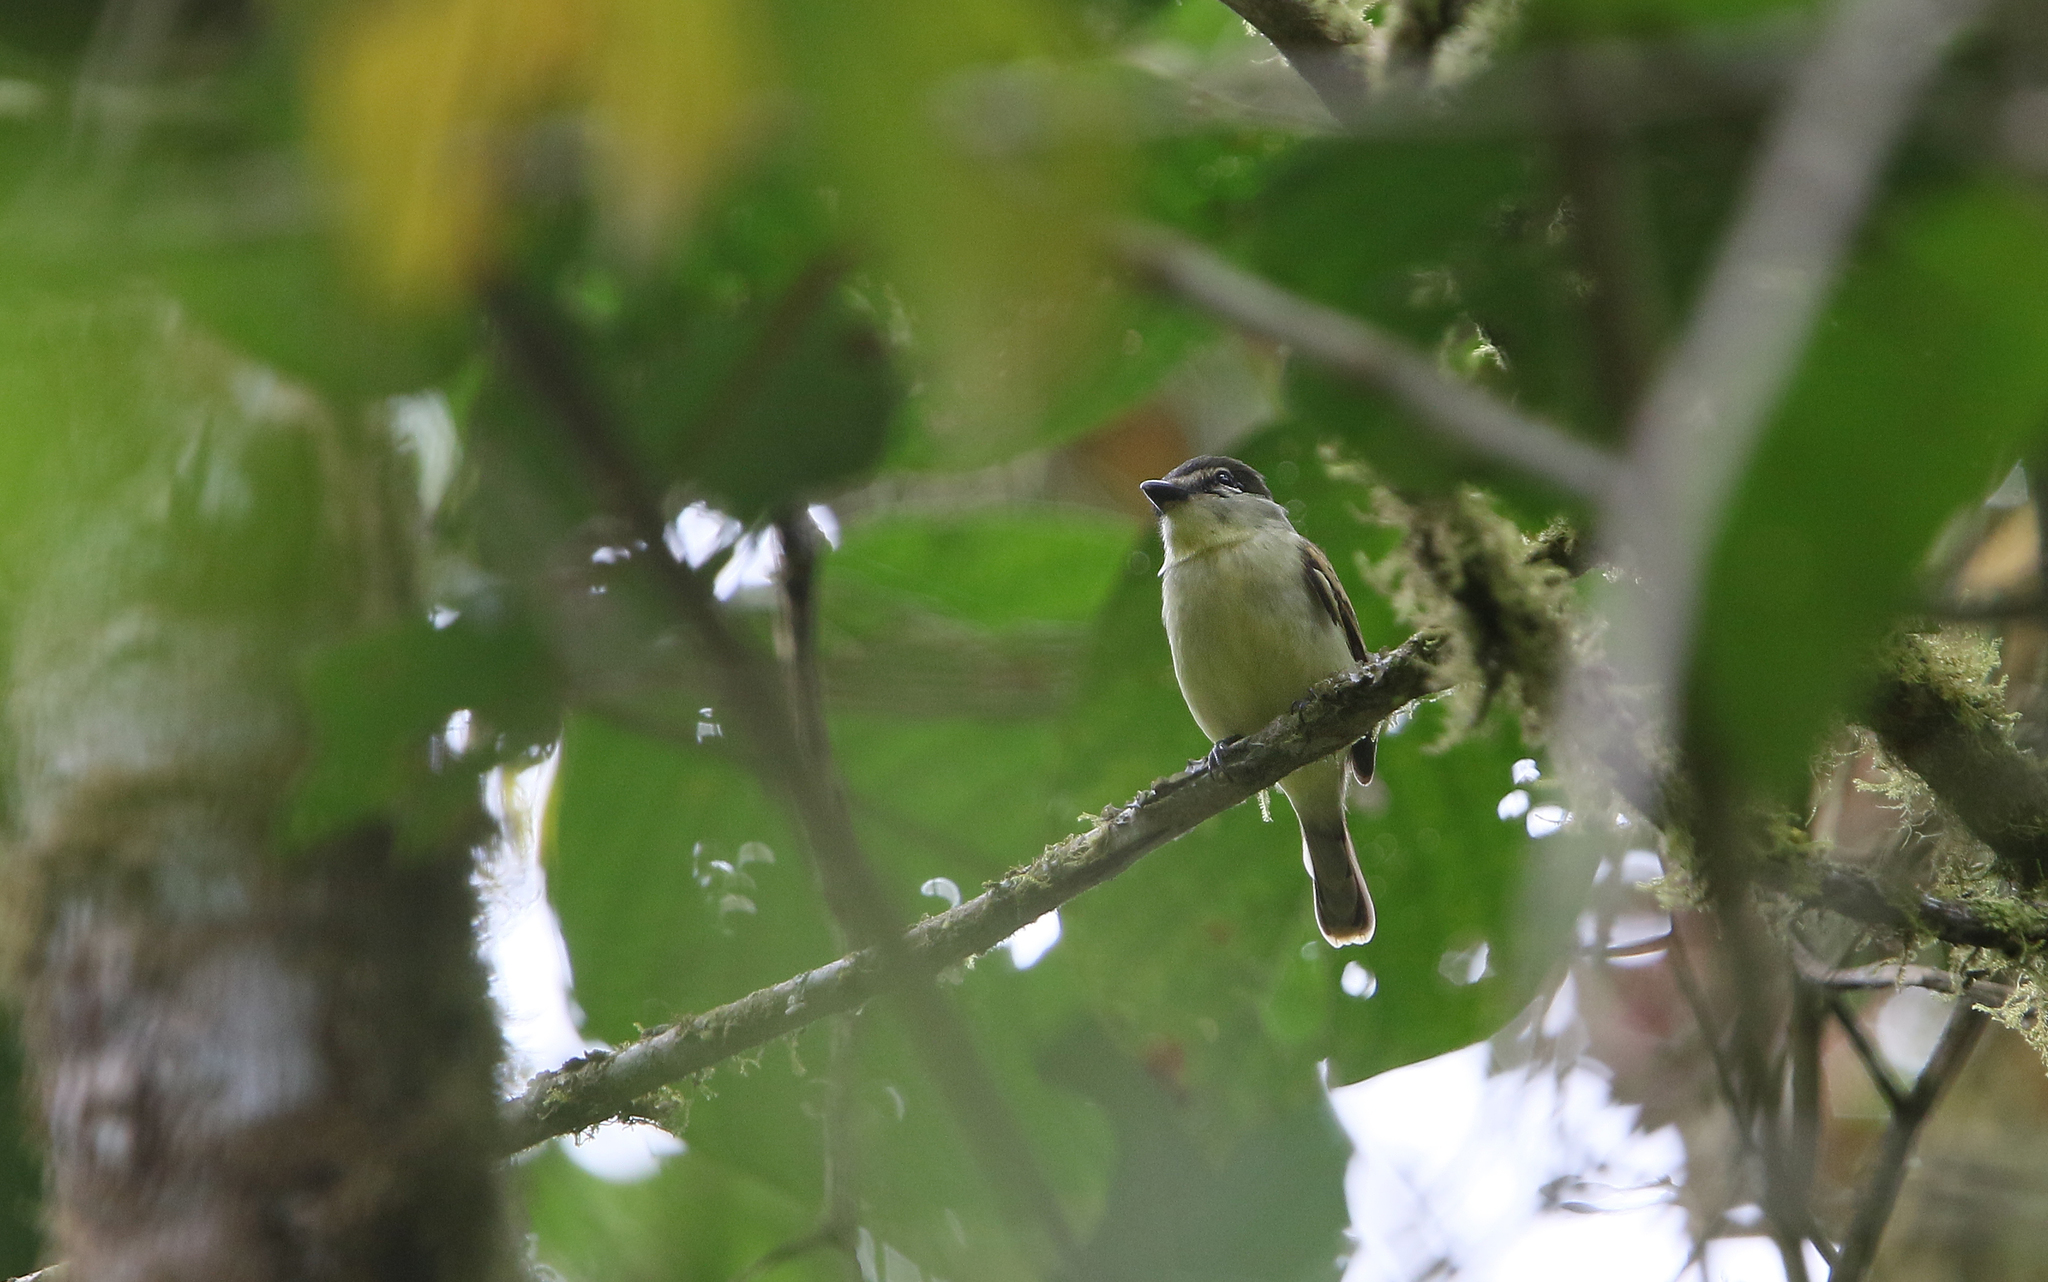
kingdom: Animalia
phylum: Chordata
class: Aves
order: Passeriformes
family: Cotingidae
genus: Pachyramphus
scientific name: Pachyramphus polychopterus
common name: White-winged becard
